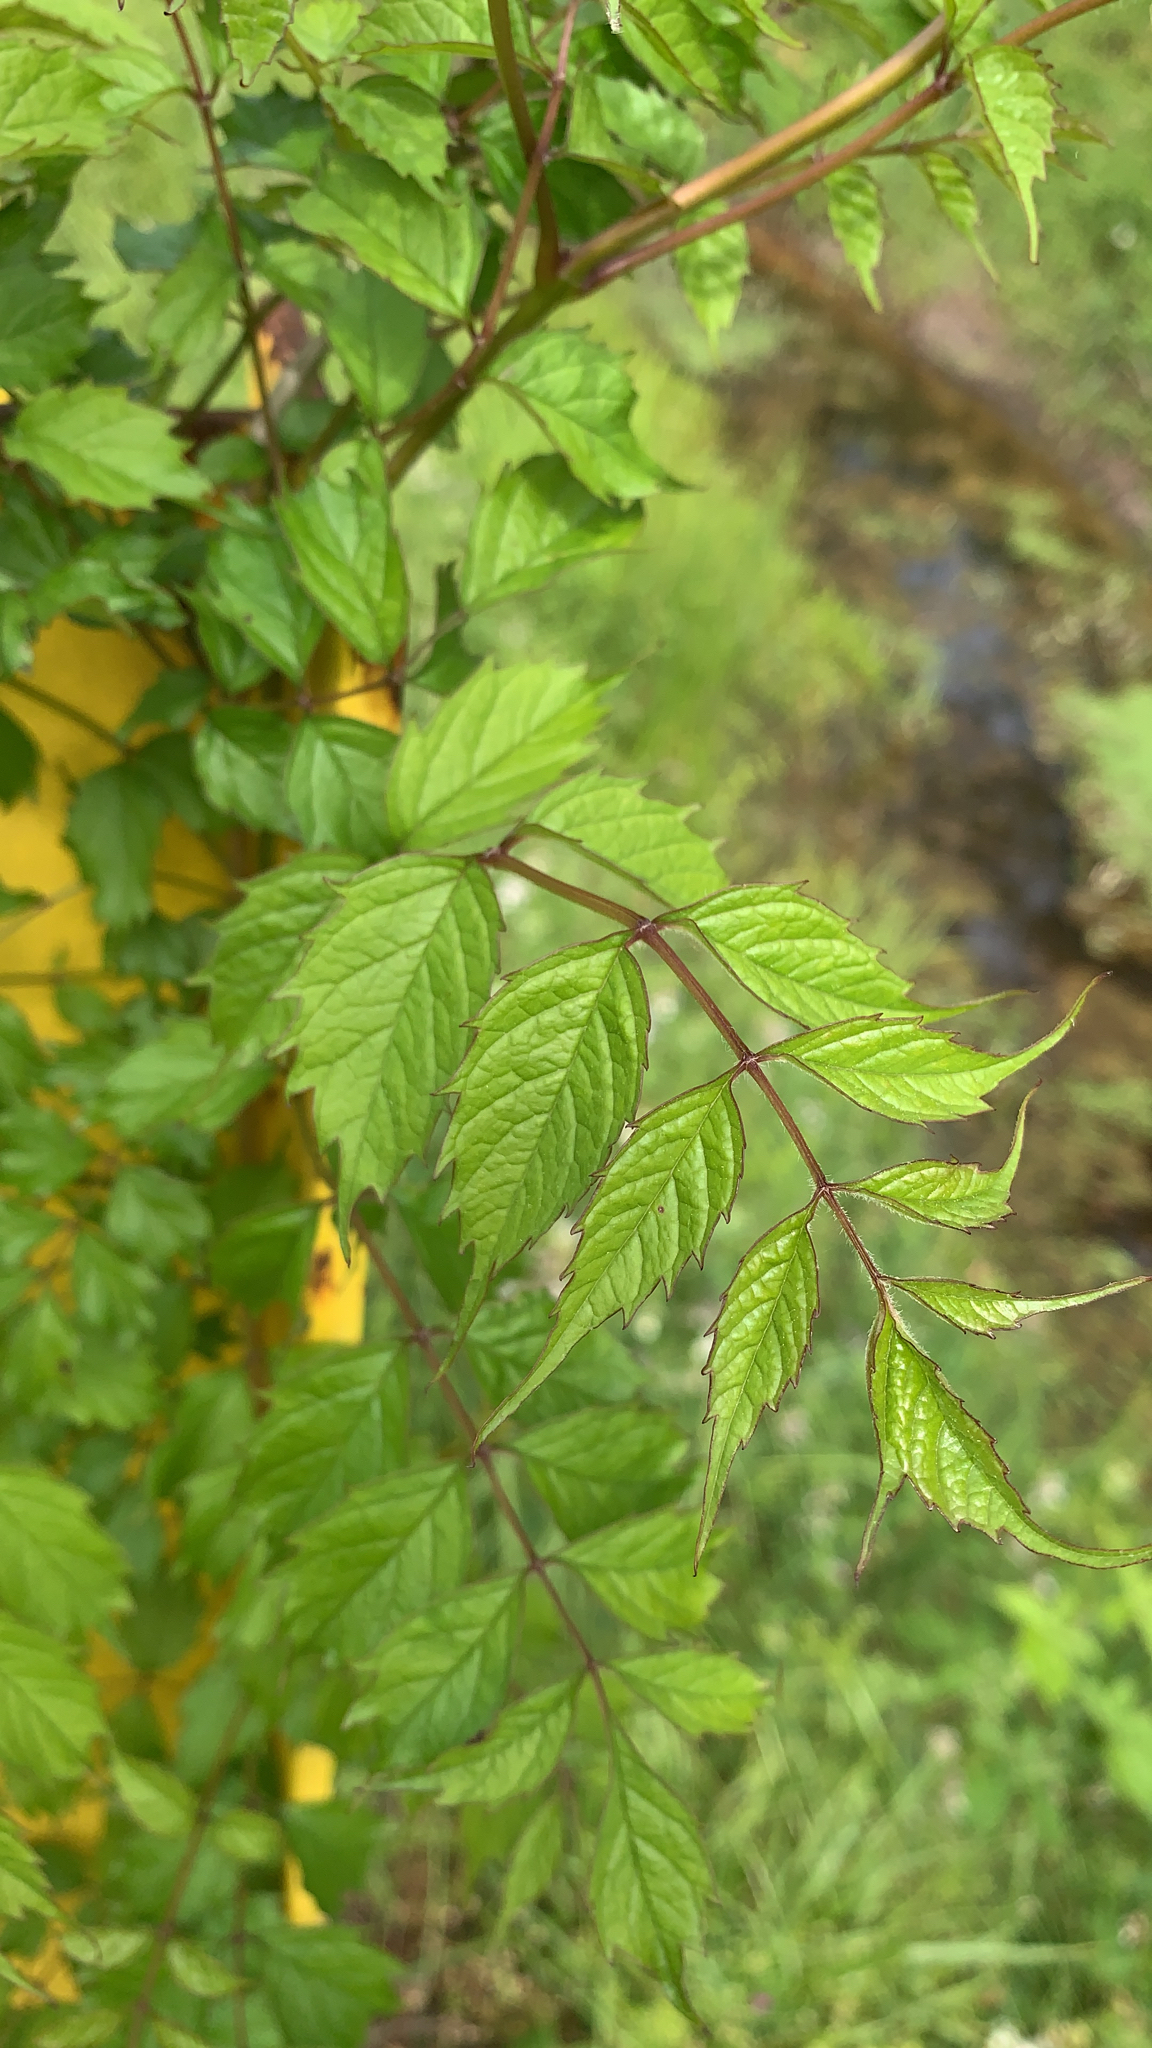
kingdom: Plantae
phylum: Tracheophyta
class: Magnoliopsida
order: Lamiales
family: Bignoniaceae
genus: Campsis
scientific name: Campsis radicans
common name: Trumpet-creeper
